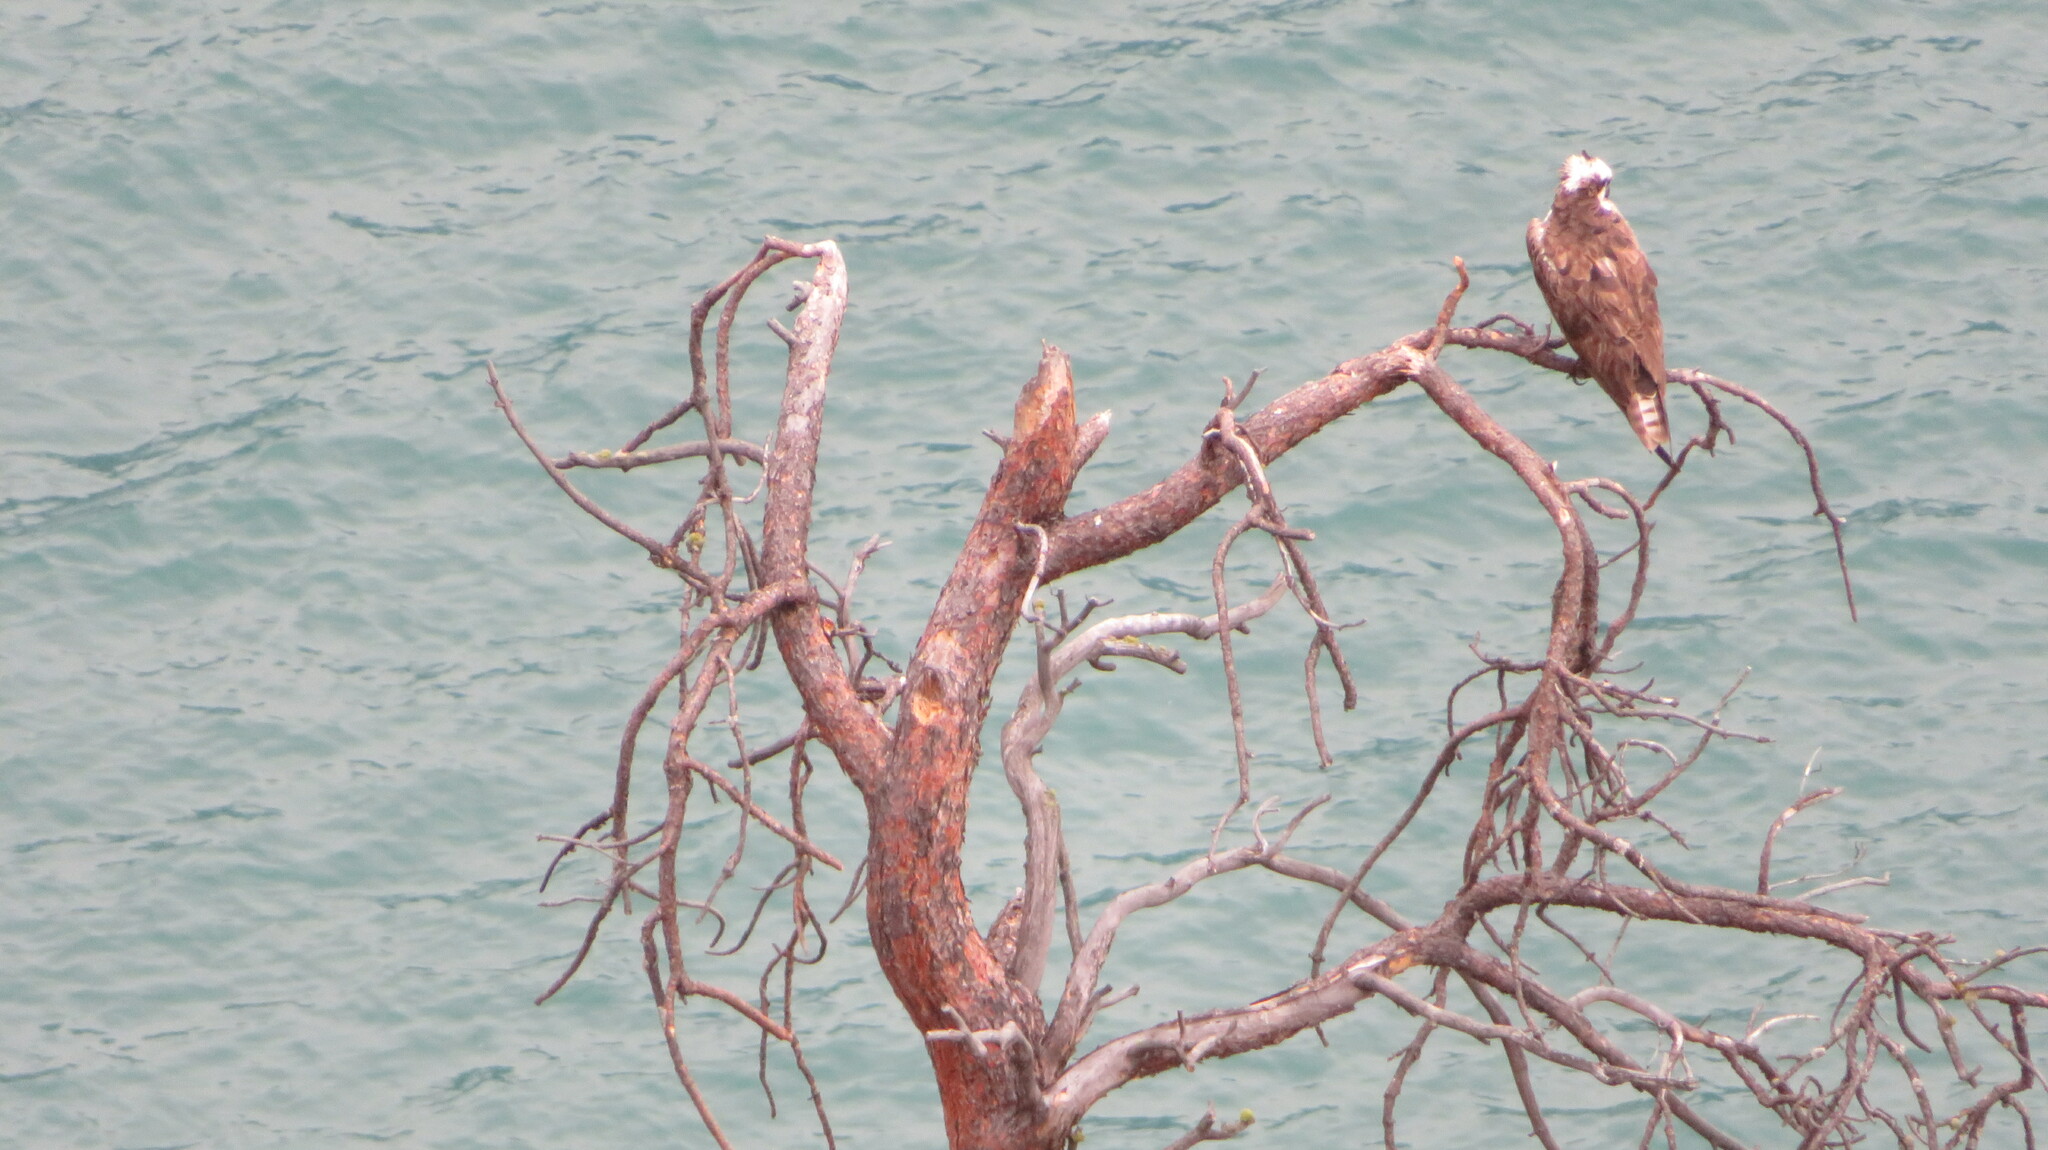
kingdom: Animalia
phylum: Chordata
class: Aves
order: Accipitriformes
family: Pandionidae
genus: Pandion
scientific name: Pandion haliaetus
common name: Osprey
